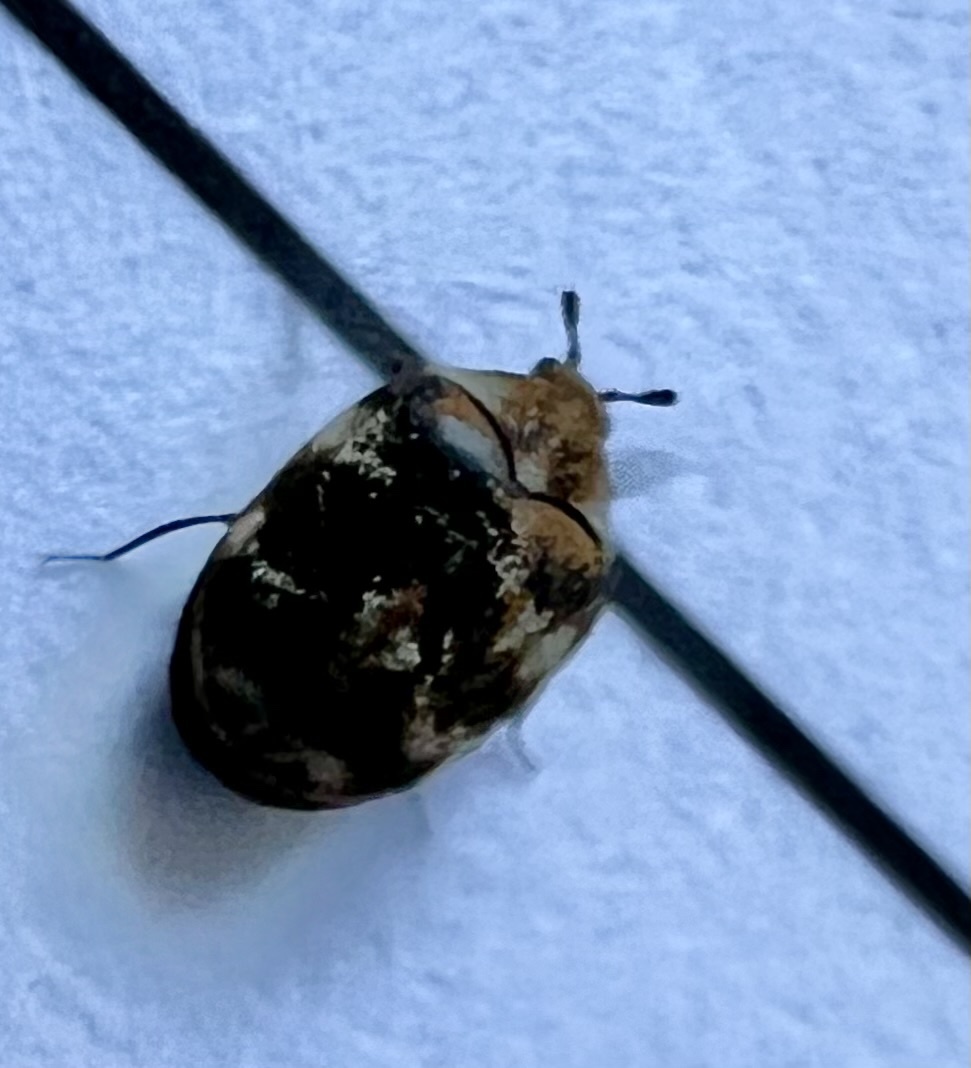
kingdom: Animalia
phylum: Arthropoda
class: Insecta
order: Coleoptera
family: Dermestidae
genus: Anthrenus
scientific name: Anthrenus verbasci
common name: Varied carpet beetle
